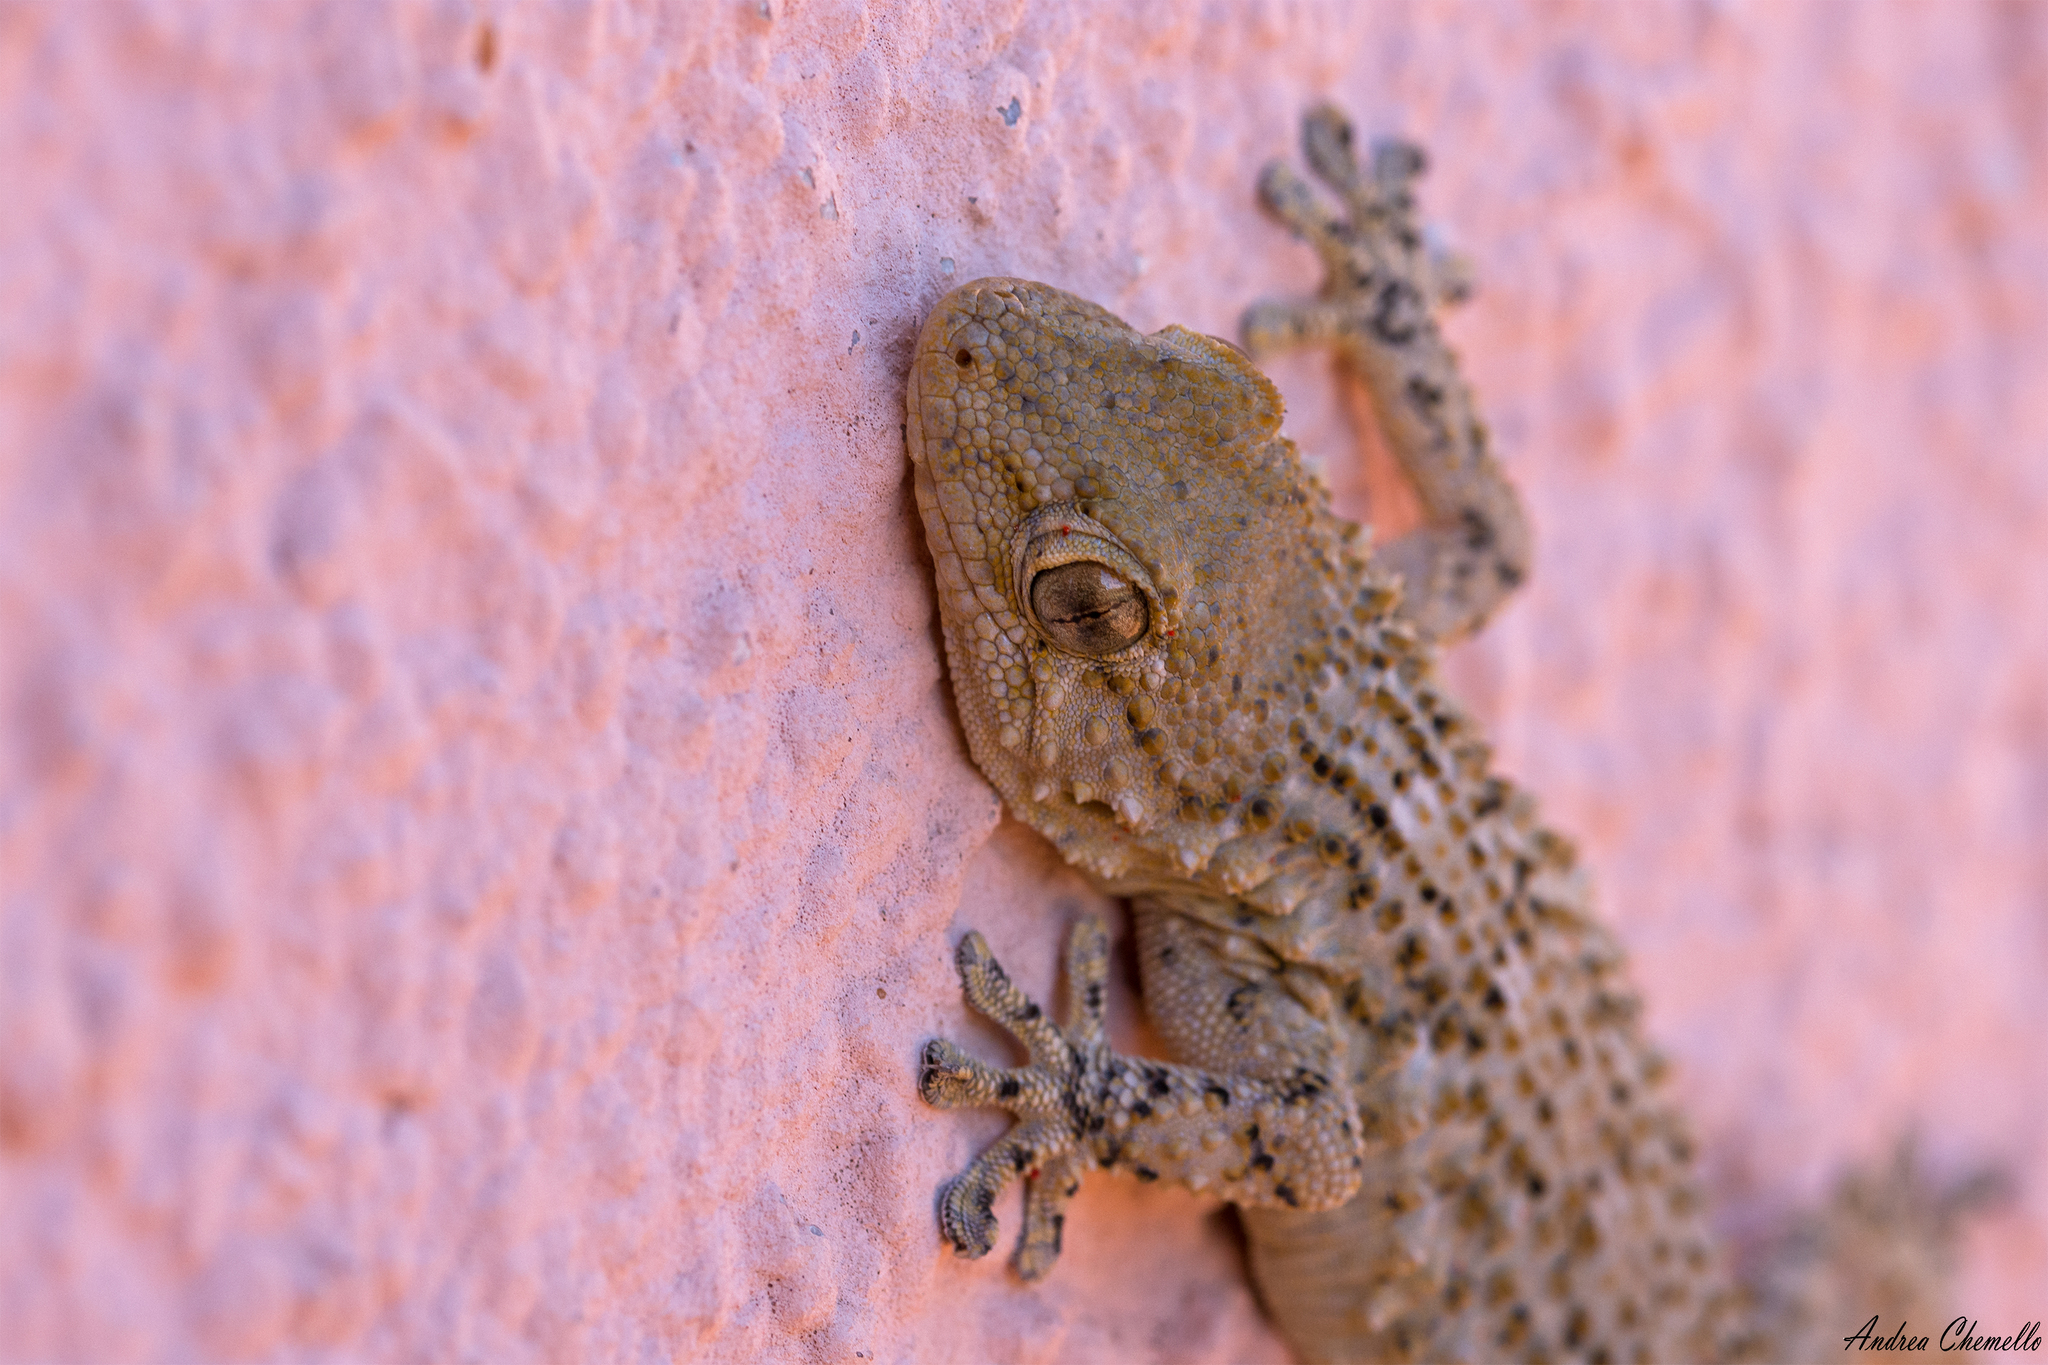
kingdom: Animalia
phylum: Chordata
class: Squamata
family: Phyllodactylidae
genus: Tarentola
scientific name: Tarentola mauritanica
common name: Moorish gecko
